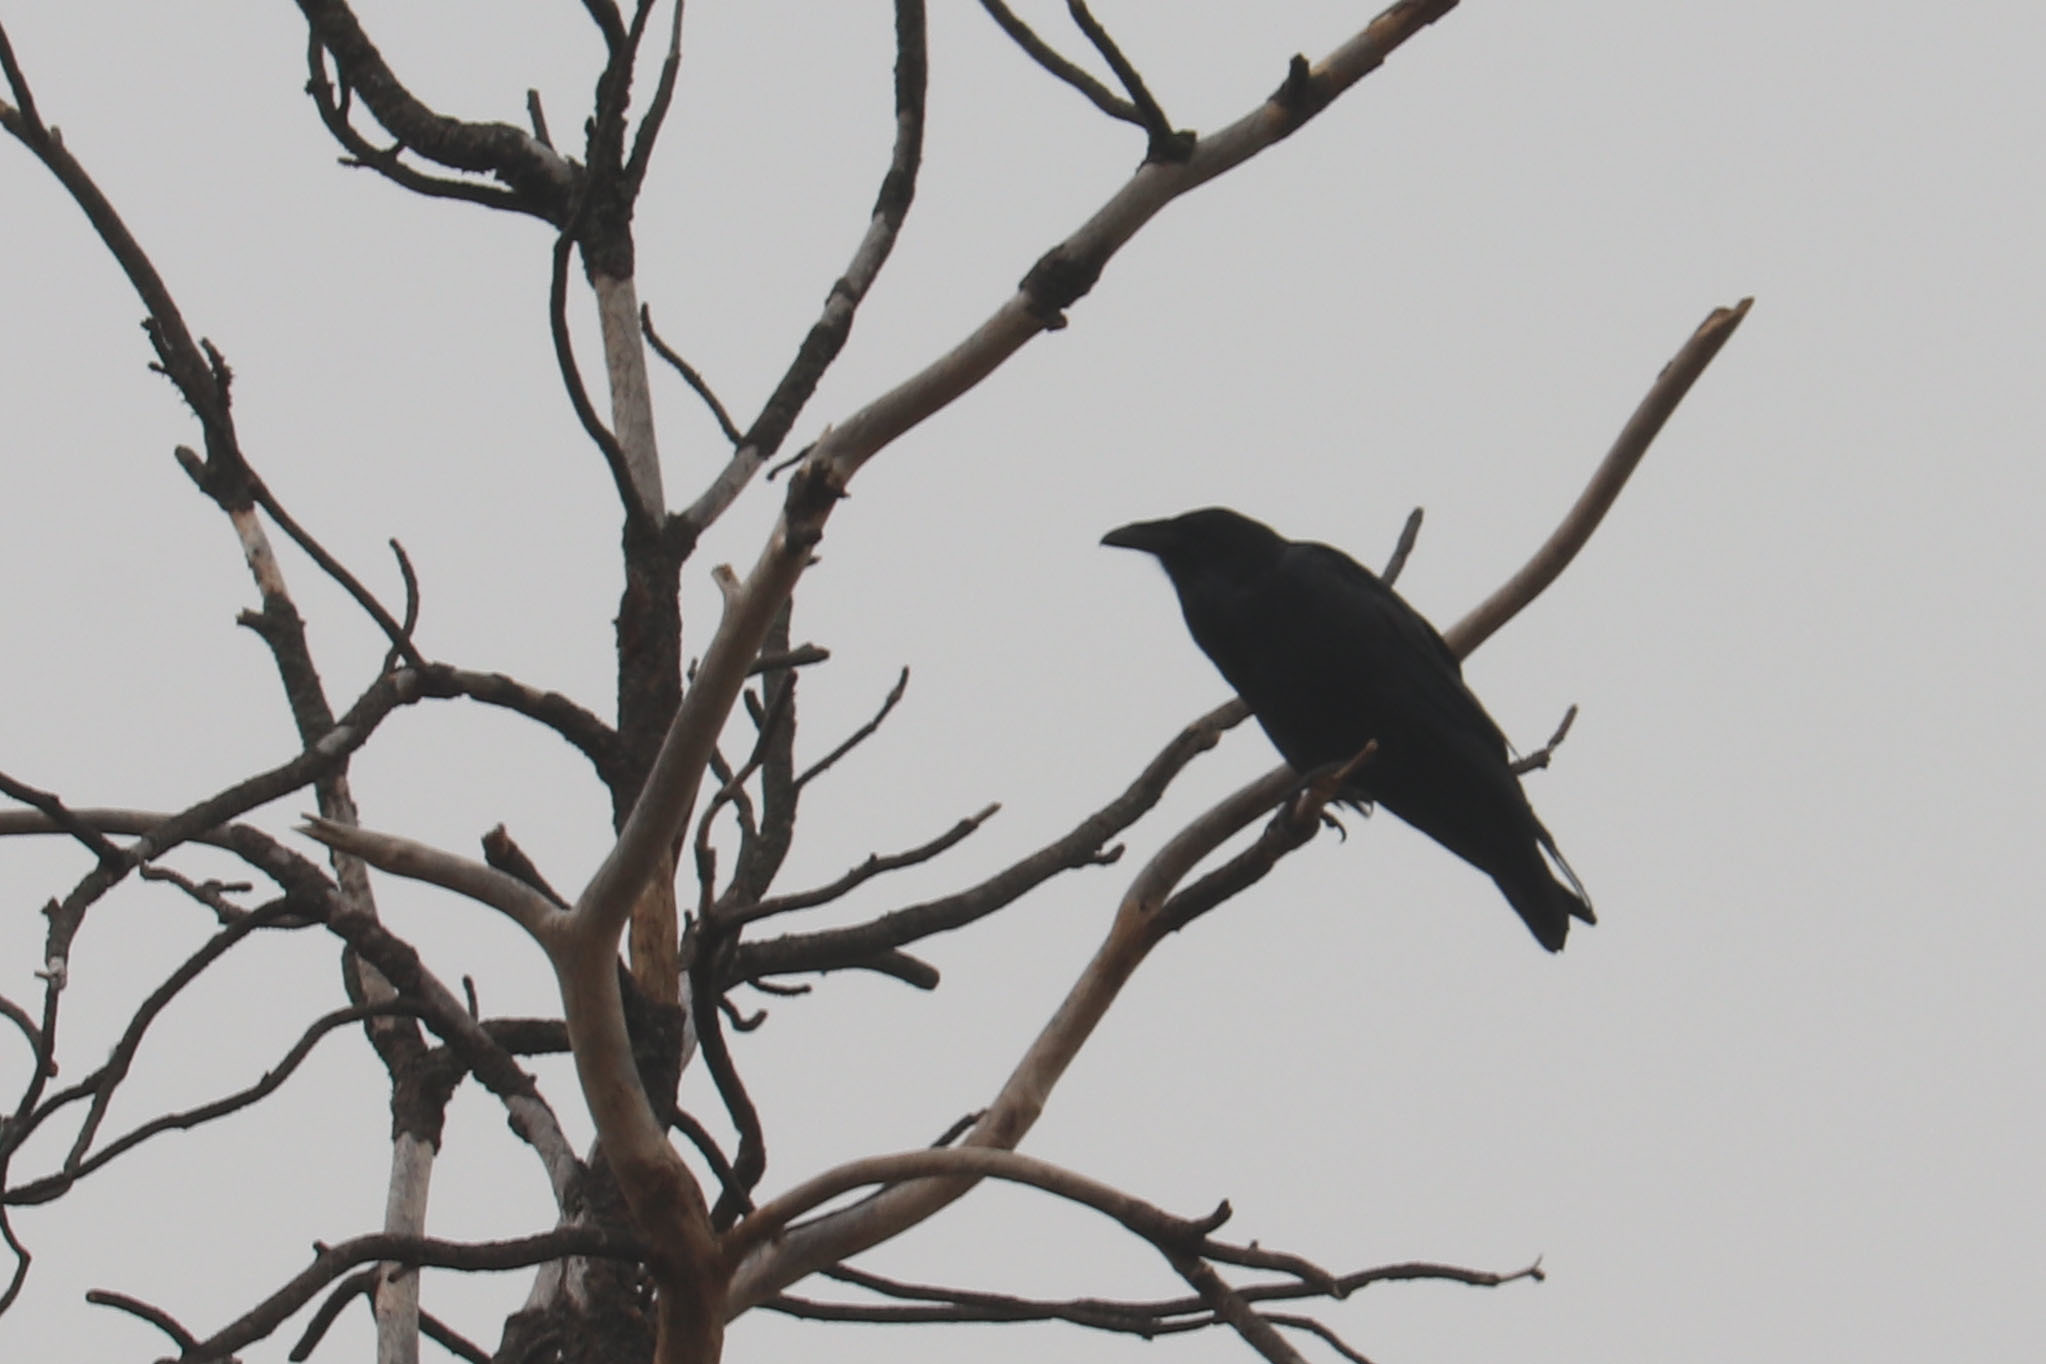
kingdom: Animalia
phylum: Chordata
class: Aves
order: Passeriformes
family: Corvidae
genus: Corvus
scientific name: Corvus corax
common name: Common raven
